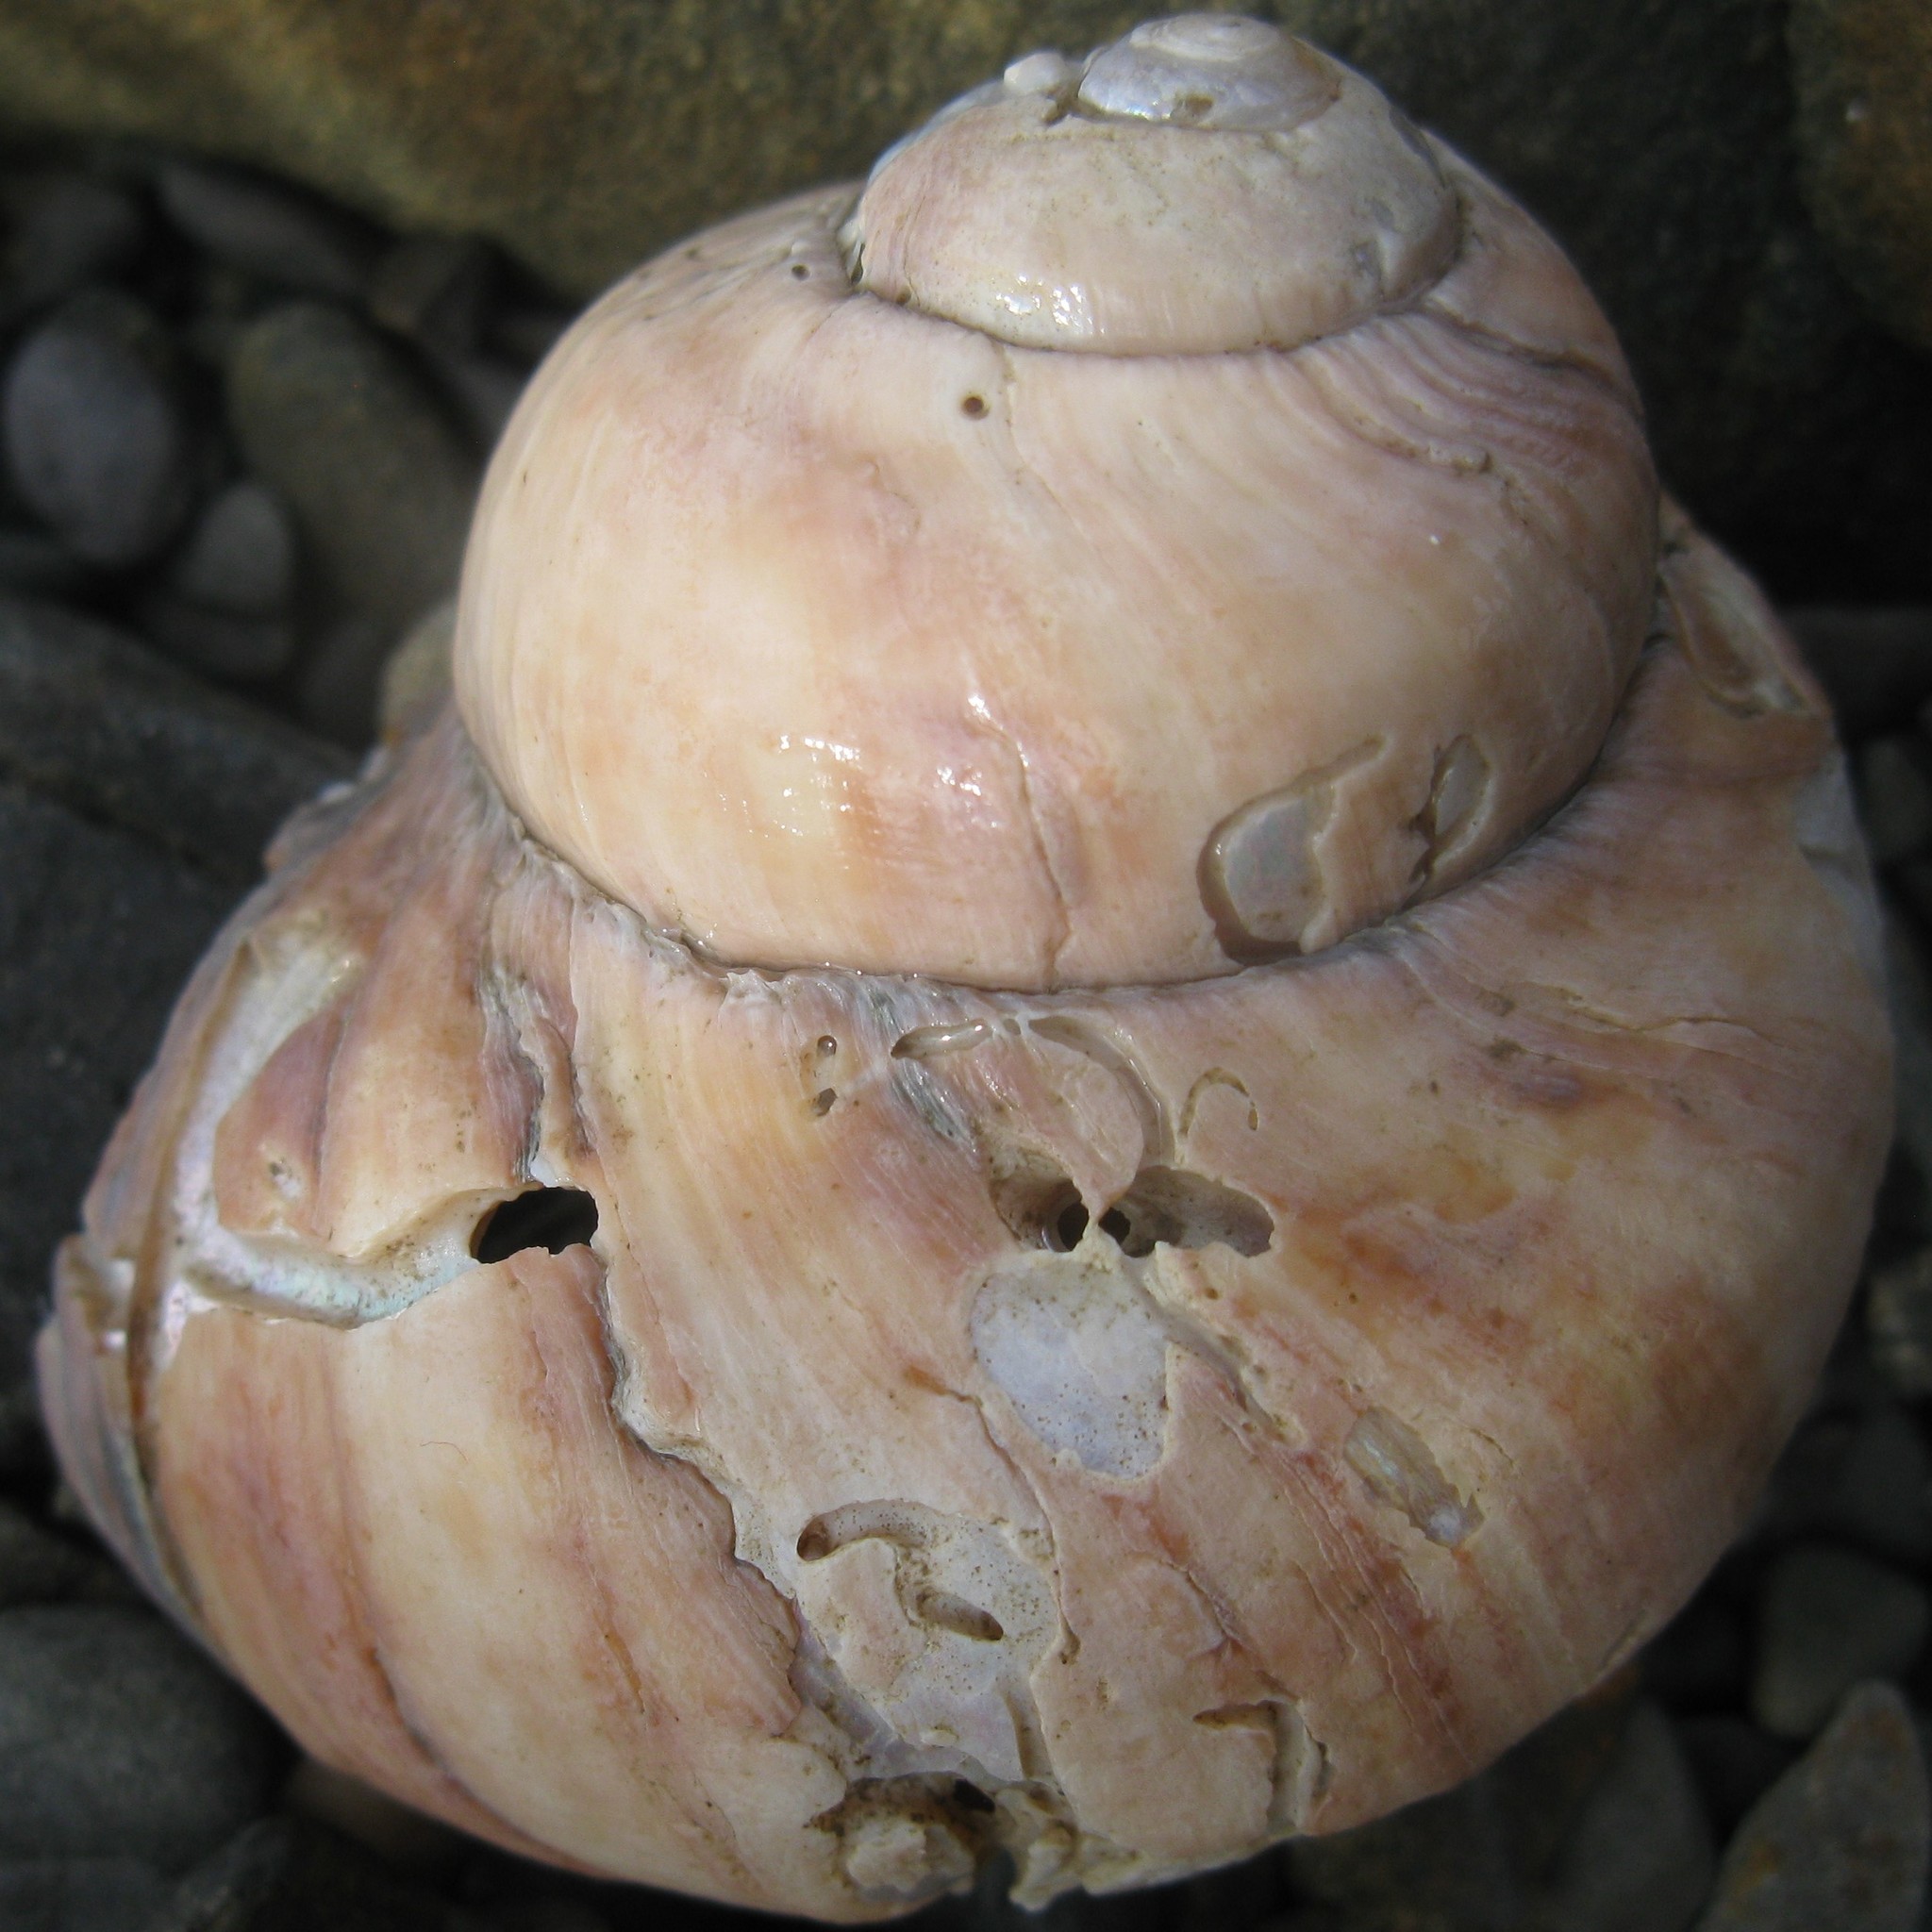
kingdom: Animalia
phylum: Mollusca
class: Gastropoda
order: Trochida
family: Turbinidae
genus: Lunella
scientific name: Lunella smaragda
